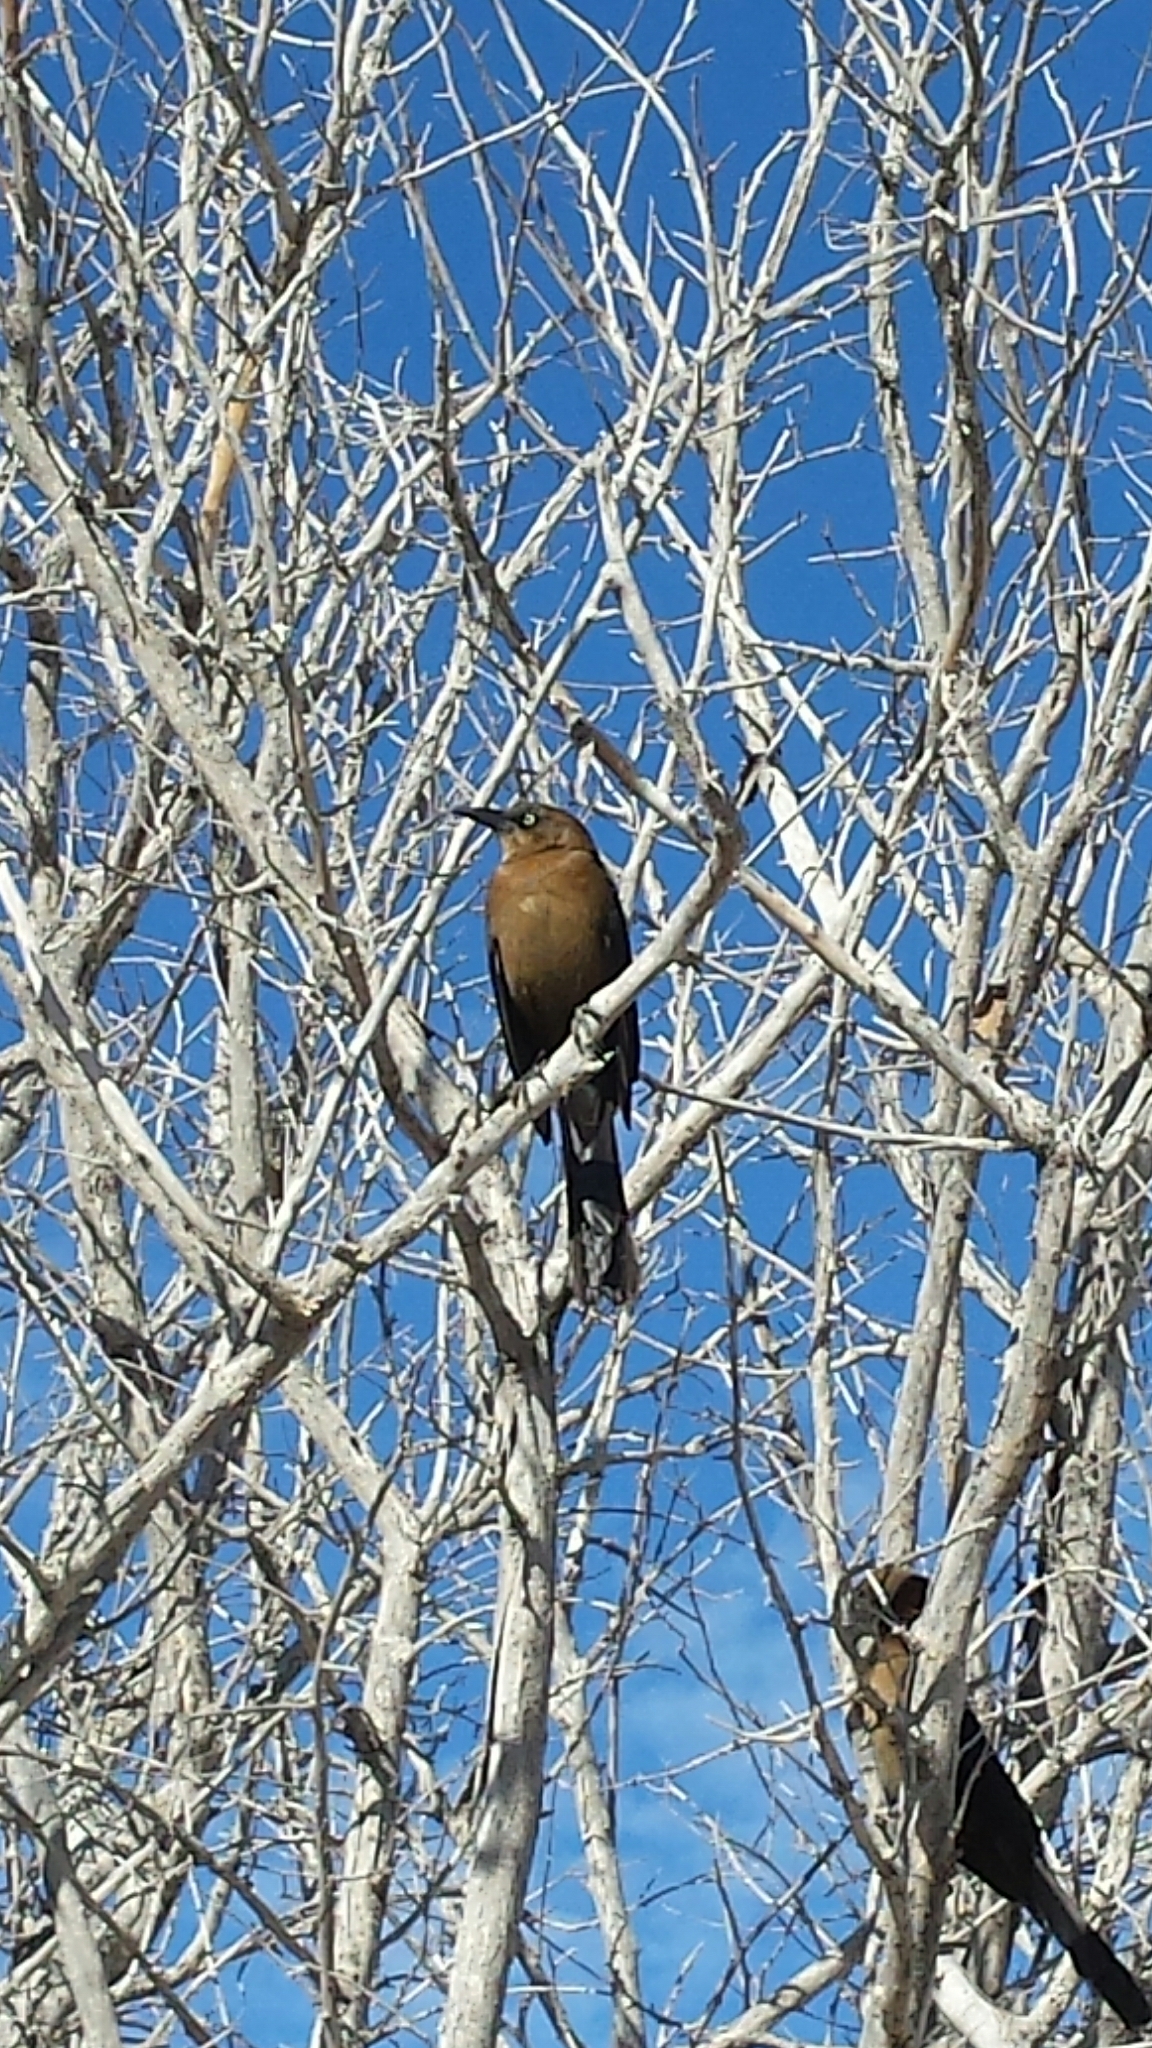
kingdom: Animalia
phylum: Chordata
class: Aves
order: Passeriformes
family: Icteridae
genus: Quiscalus
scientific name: Quiscalus mexicanus
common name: Great-tailed grackle
